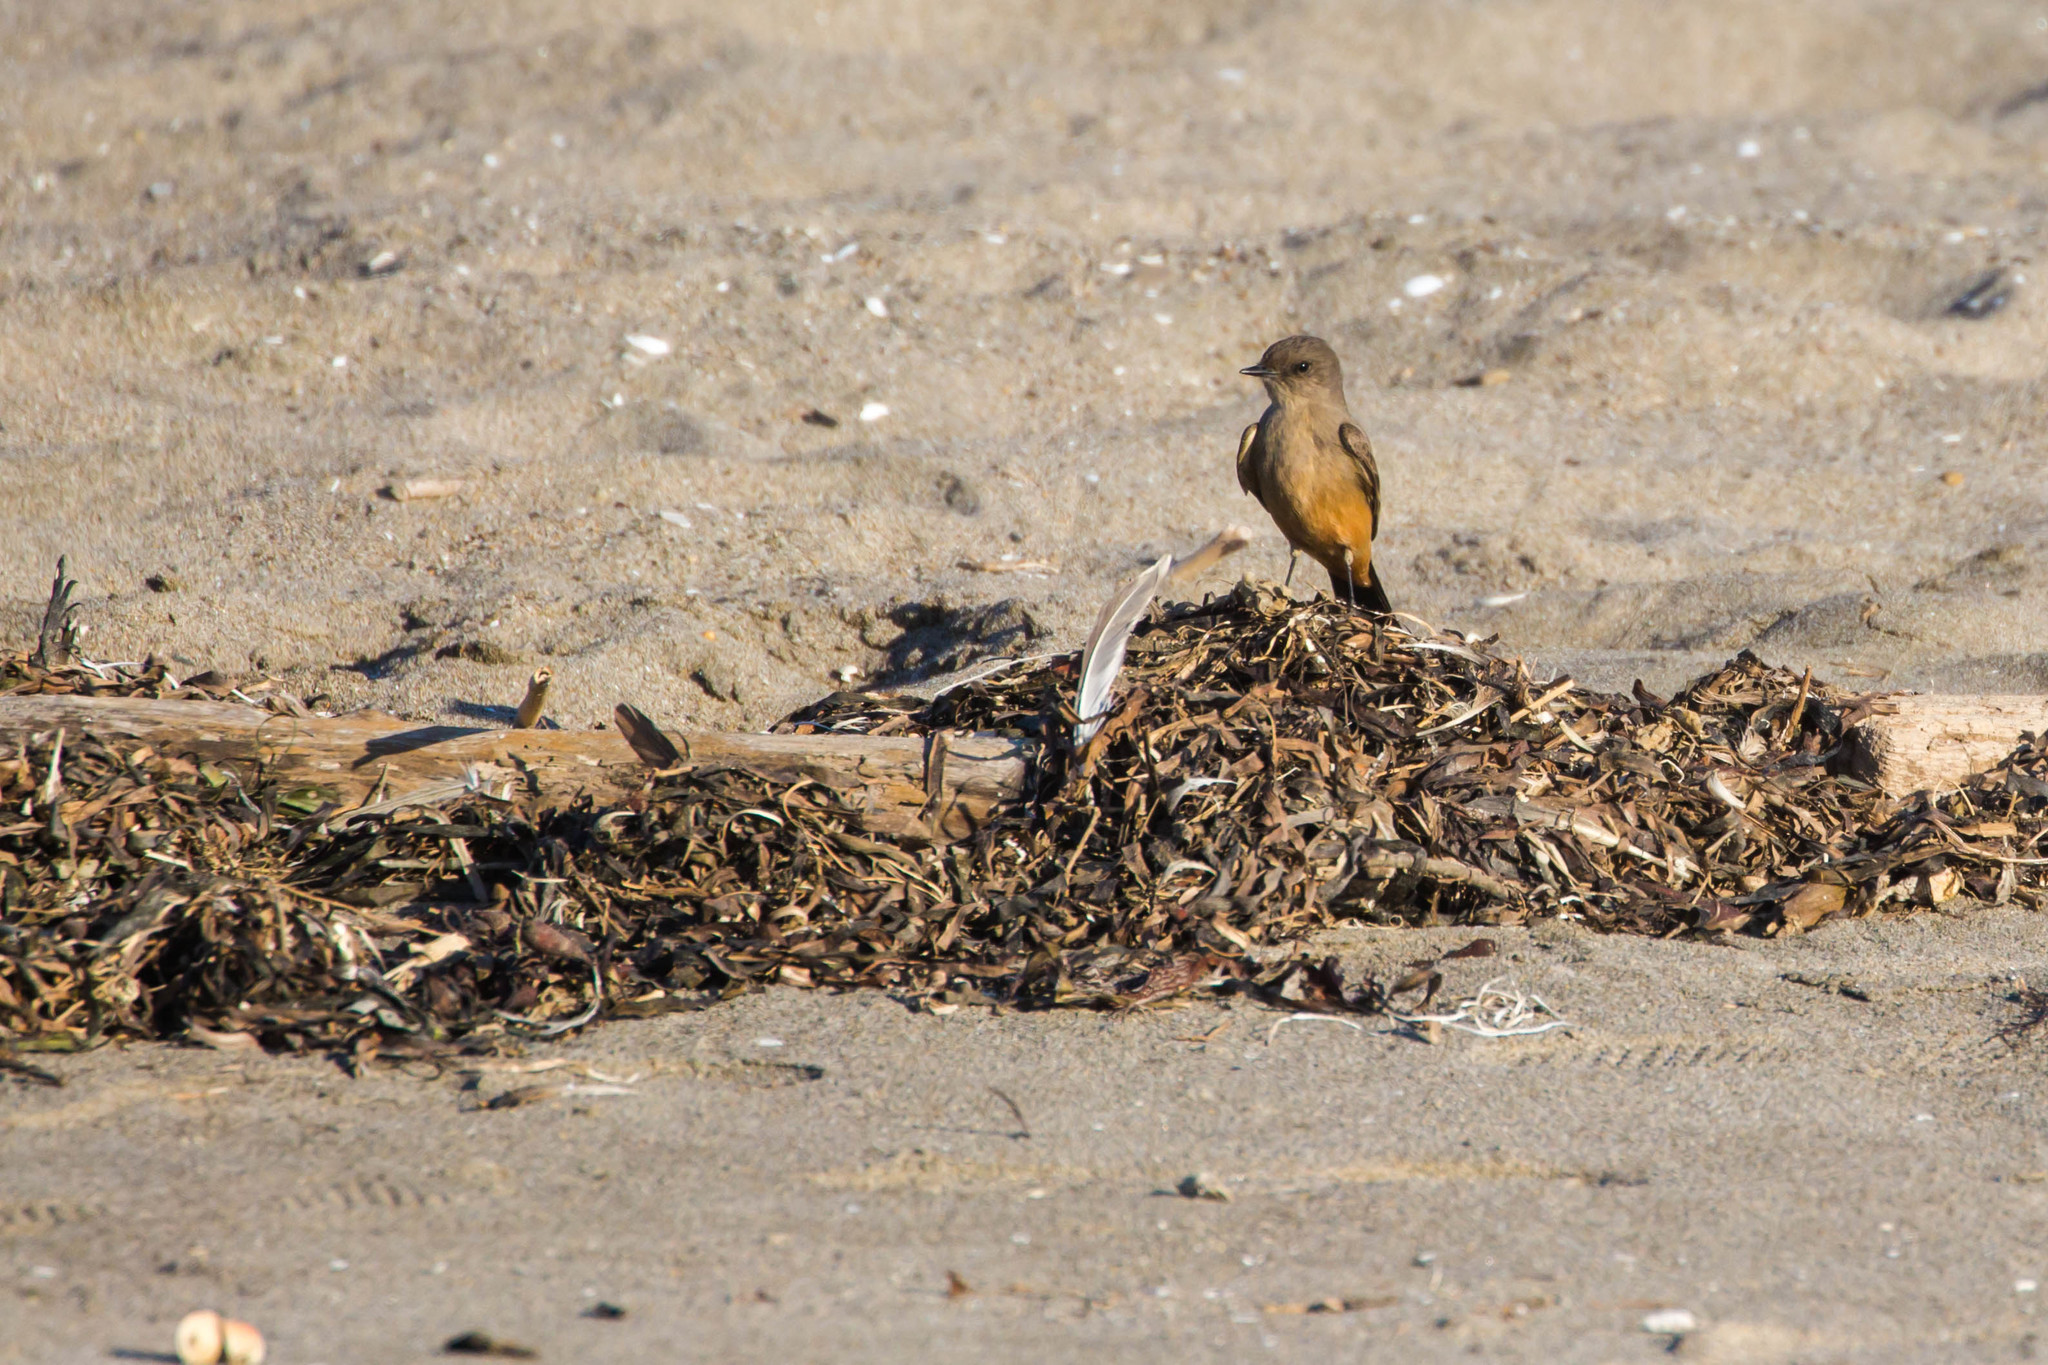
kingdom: Animalia
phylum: Chordata
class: Aves
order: Passeriformes
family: Tyrannidae
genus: Sayornis
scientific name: Sayornis saya
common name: Say's phoebe
